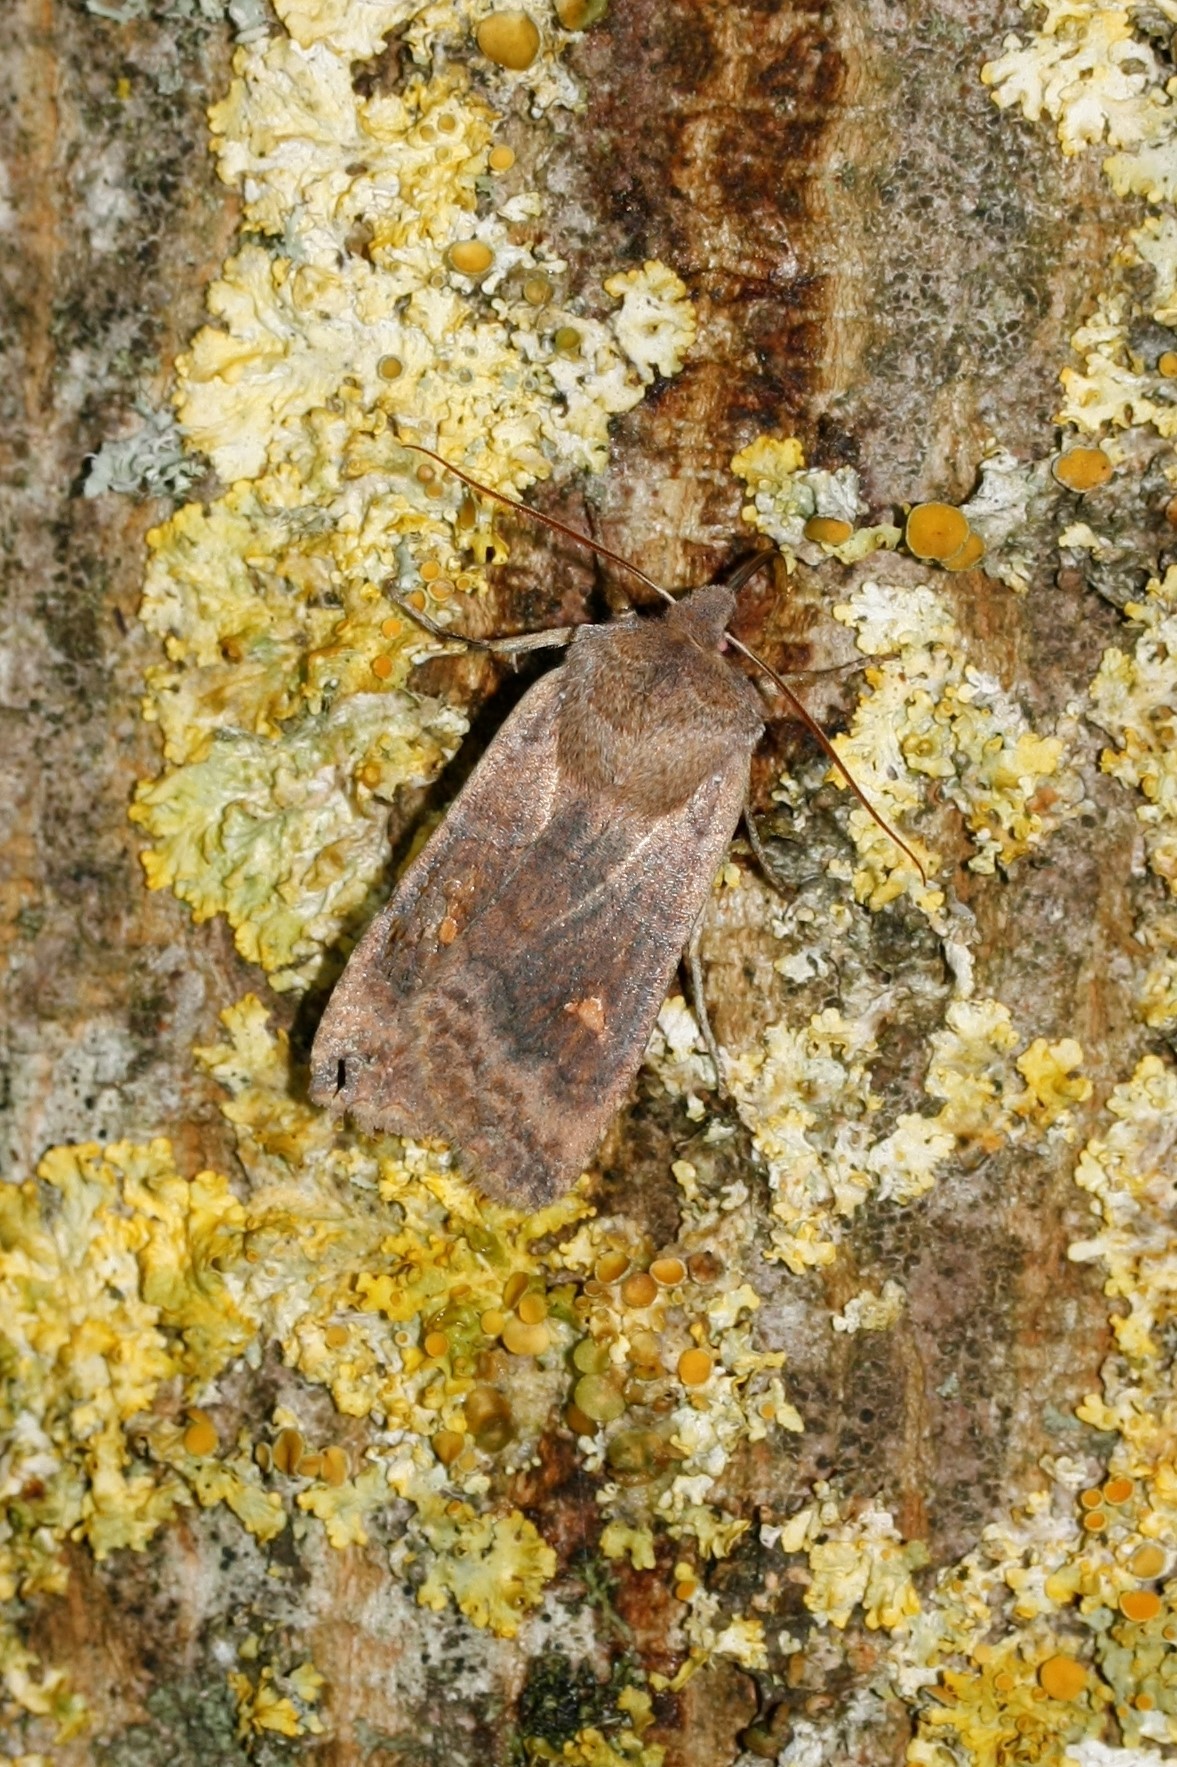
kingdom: Animalia
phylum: Arthropoda
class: Insecta
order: Lepidoptera
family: Noctuidae
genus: Eupsilia
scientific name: Eupsilia transversa
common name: Satellite
